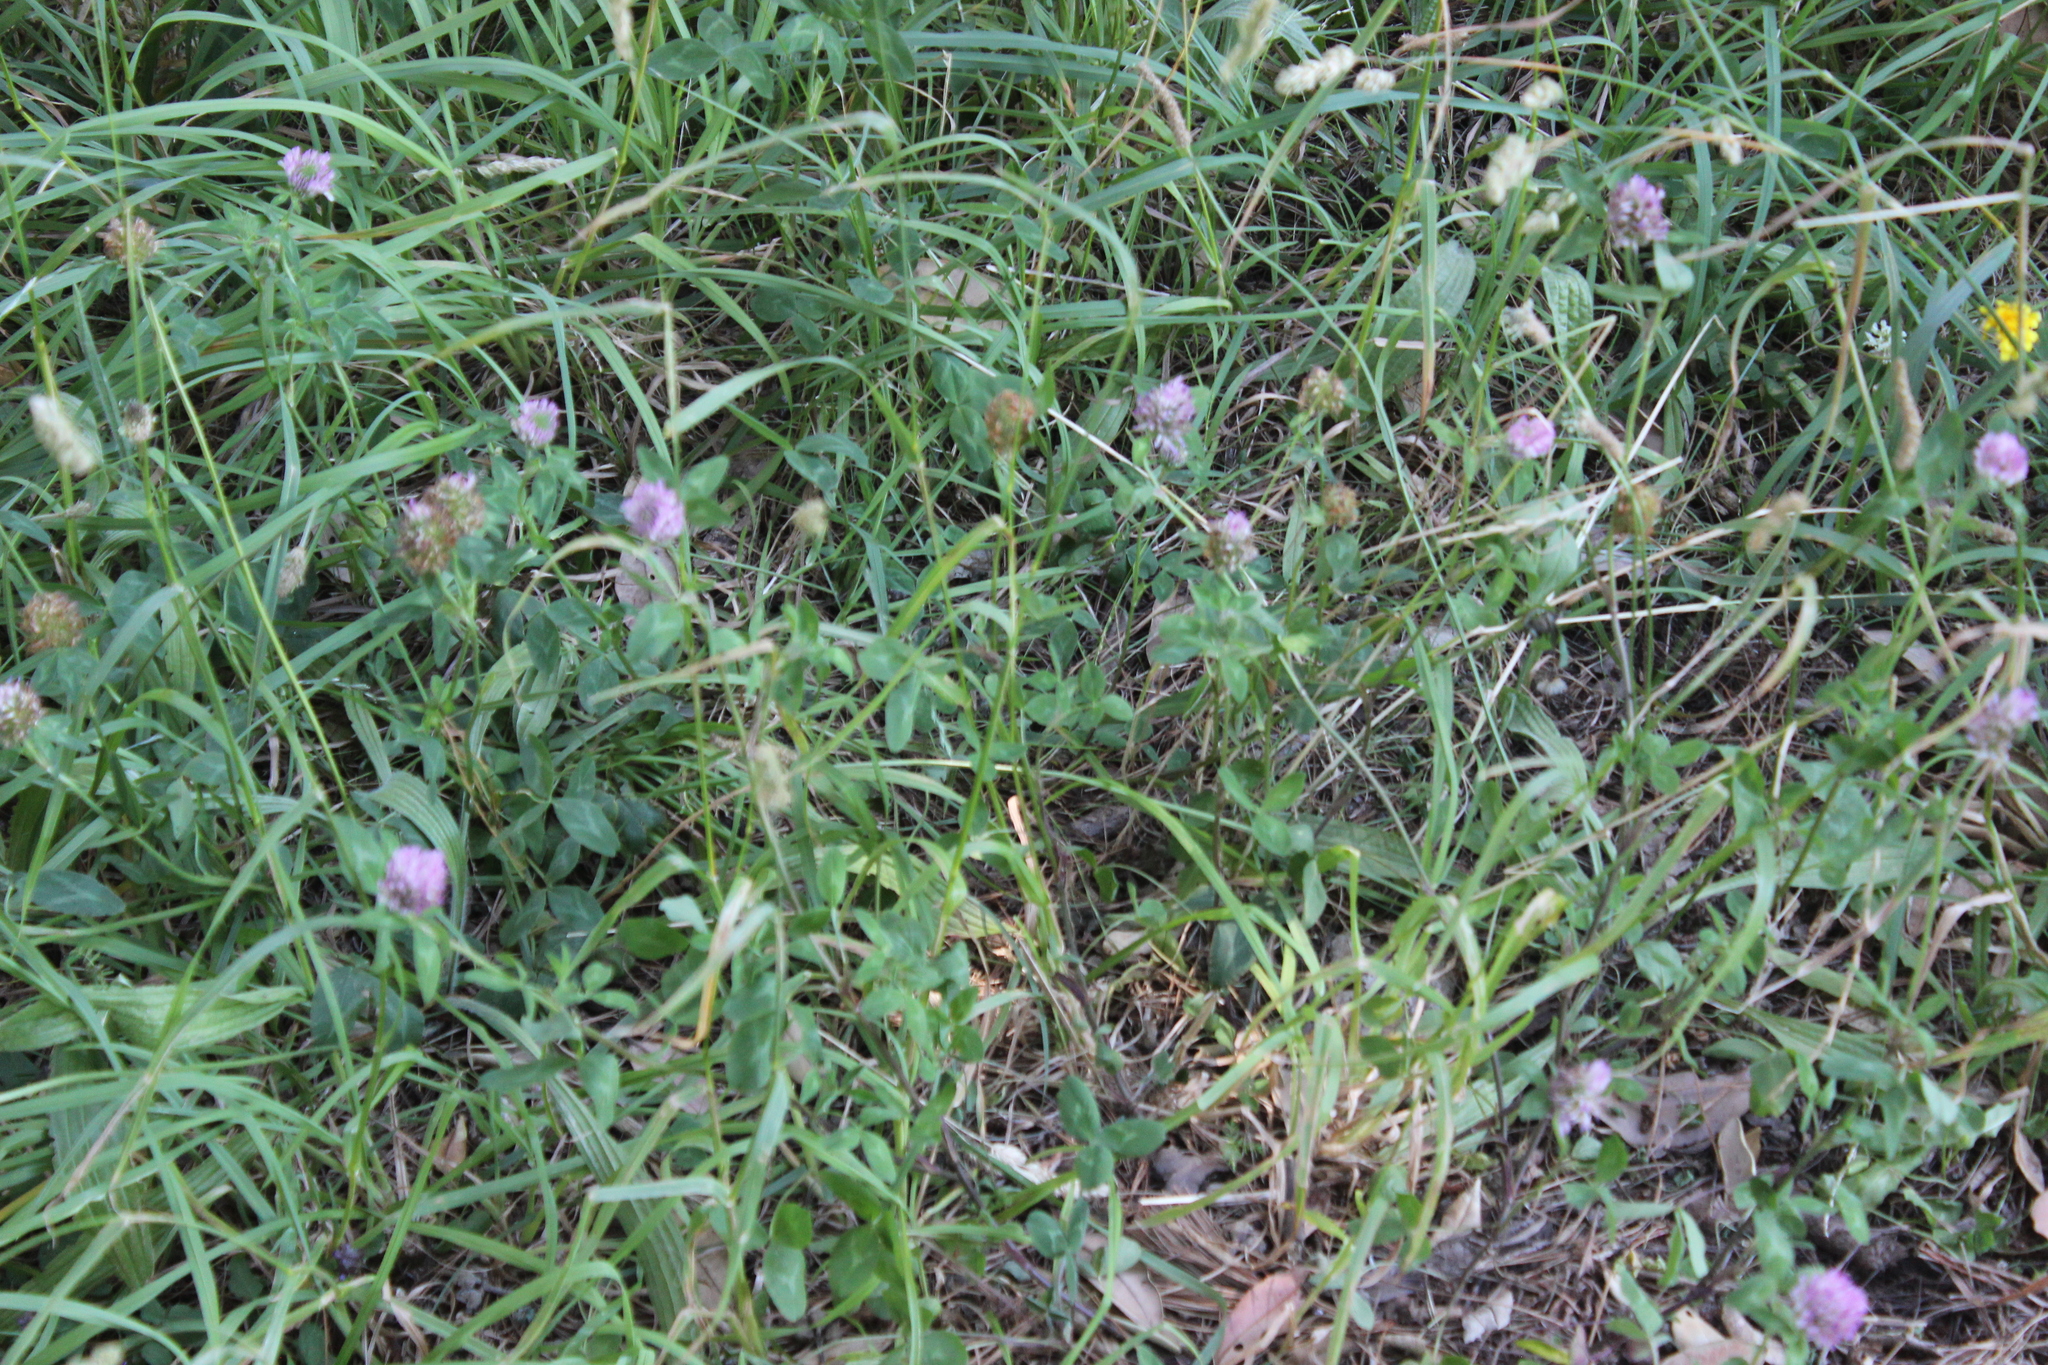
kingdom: Plantae
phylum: Tracheophyta
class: Magnoliopsida
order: Fabales
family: Fabaceae
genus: Trifolium
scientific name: Trifolium pratense
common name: Red clover
